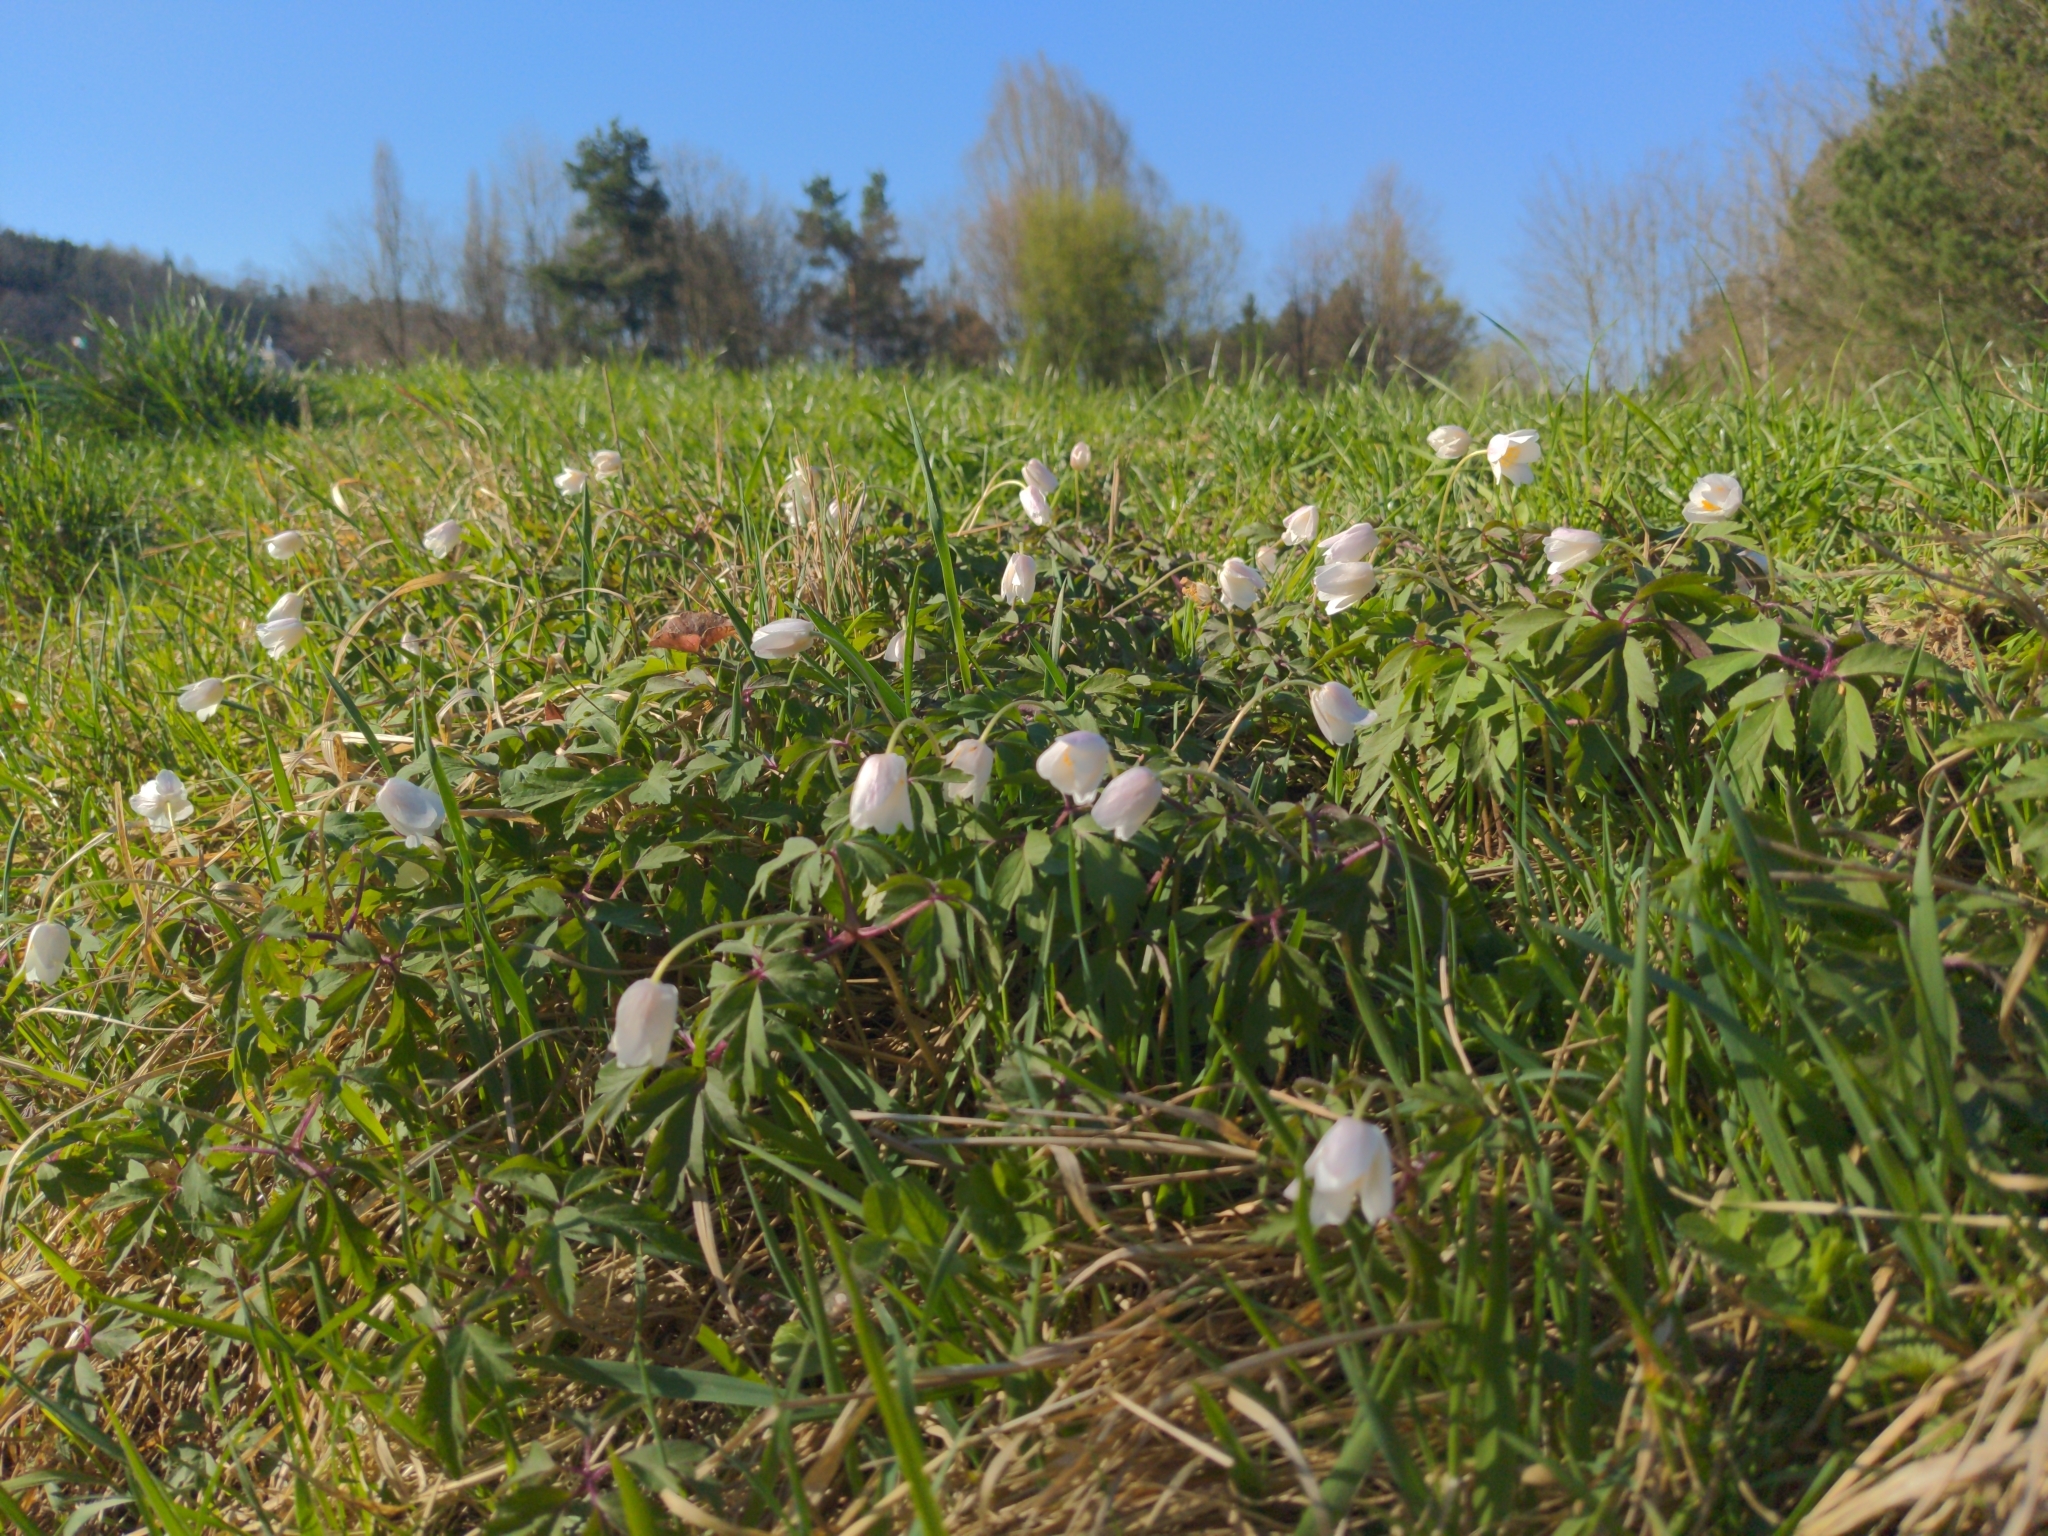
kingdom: Plantae
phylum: Tracheophyta
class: Magnoliopsida
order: Ranunculales
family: Ranunculaceae
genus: Anemone
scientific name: Anemone nemorosa
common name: Wood anemone
